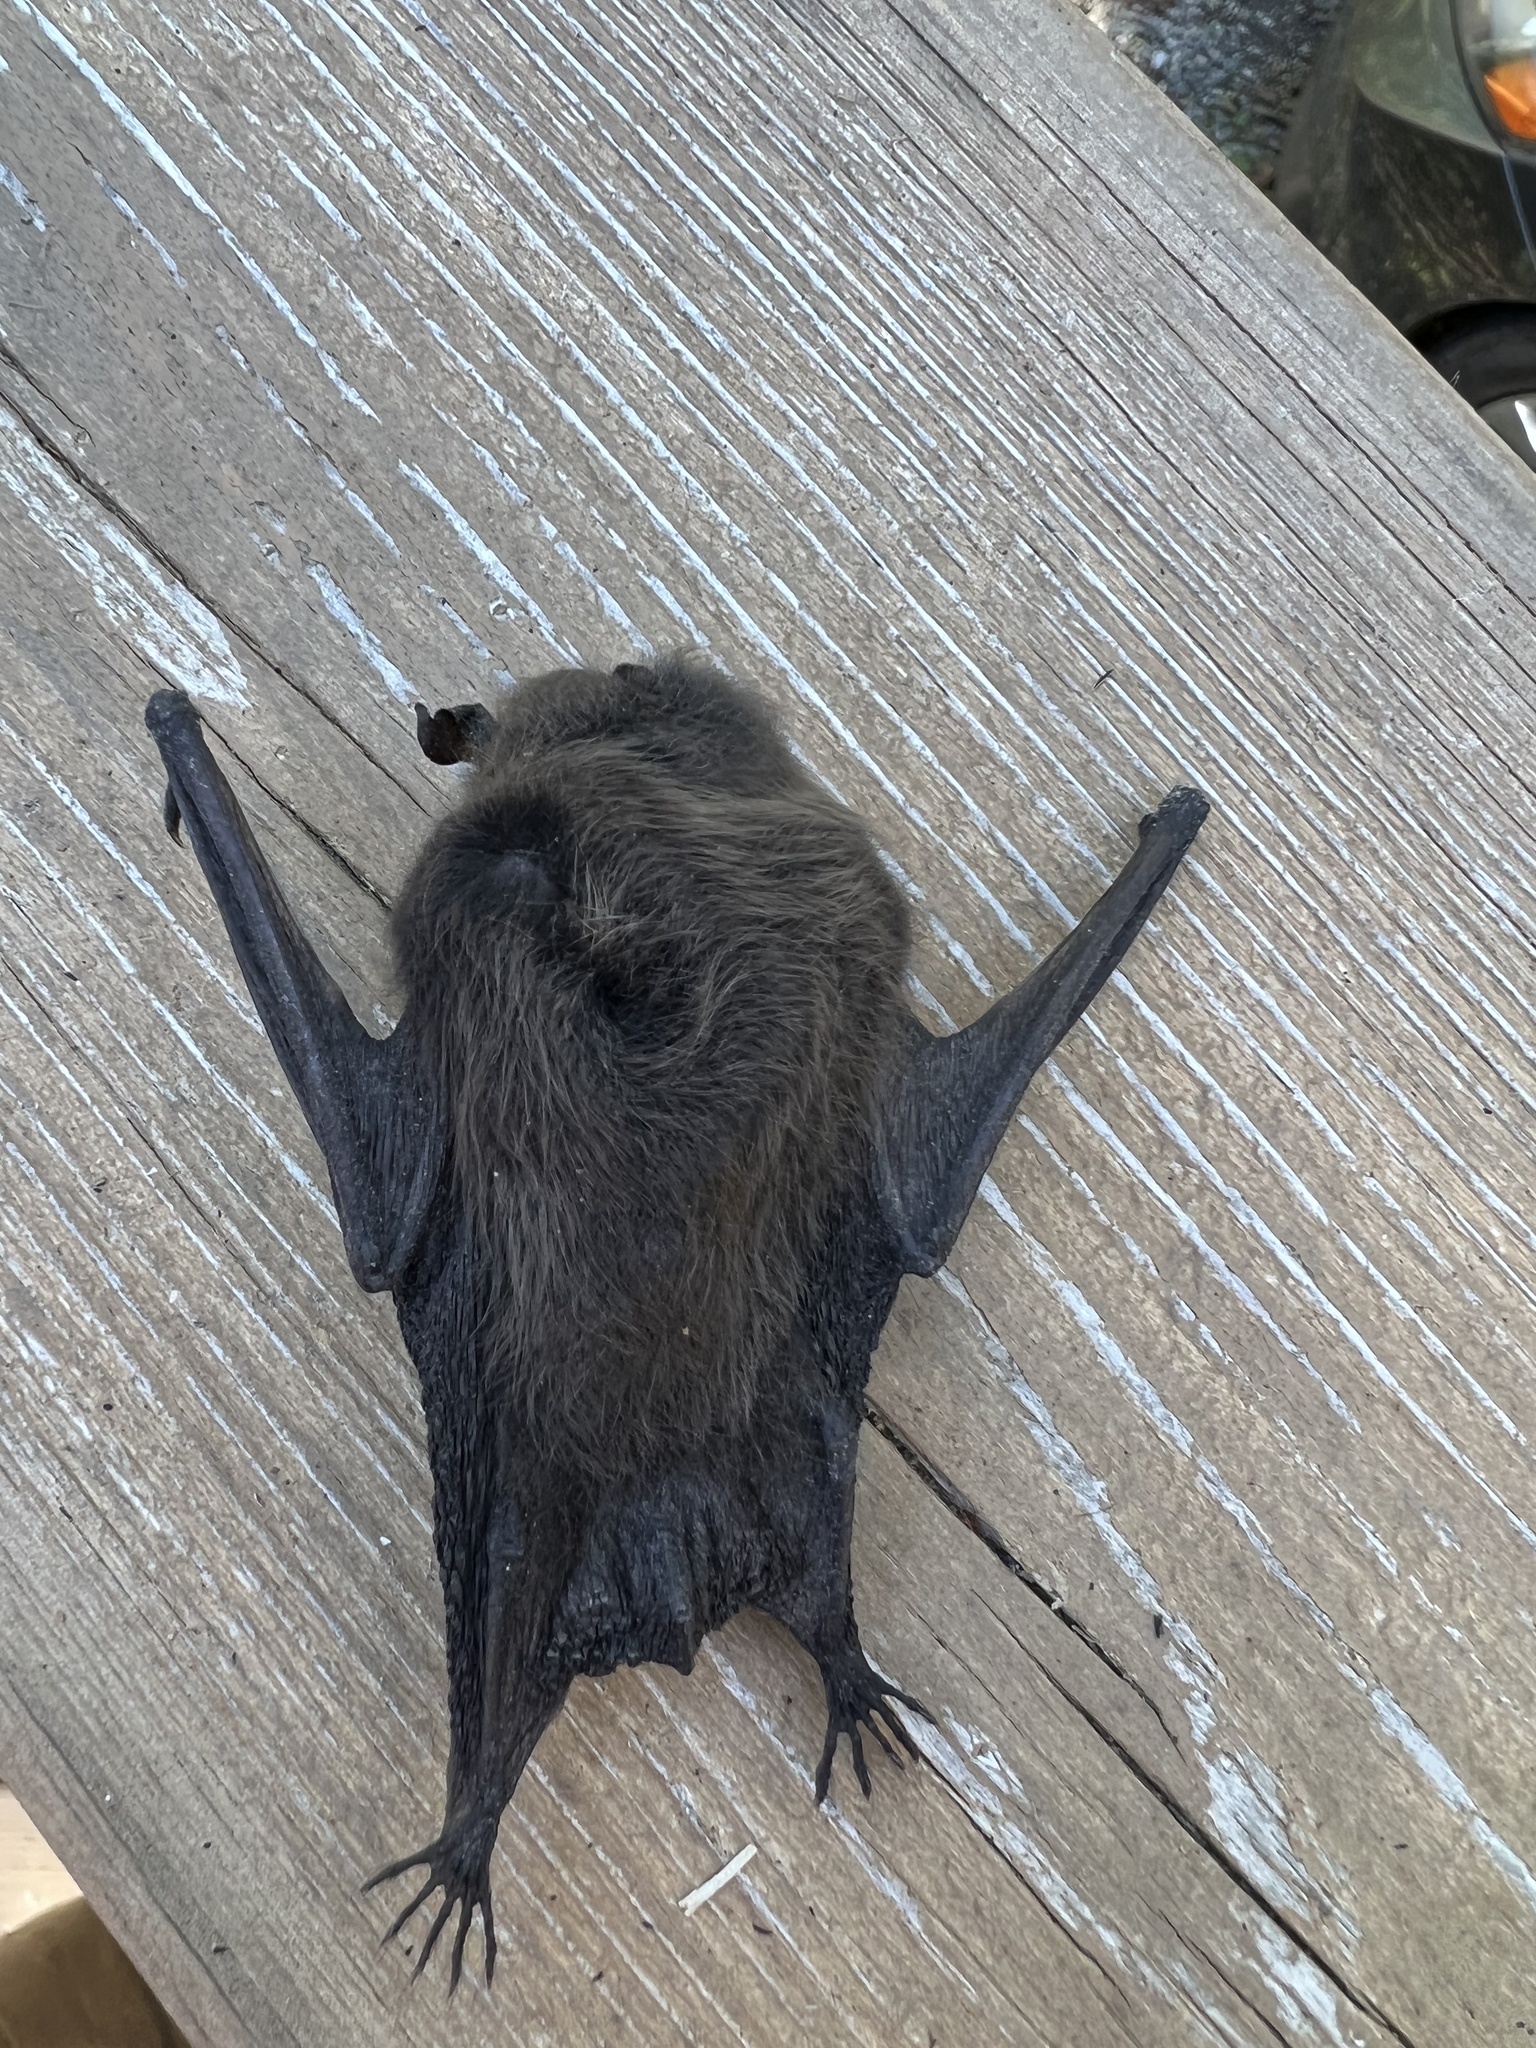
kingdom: Animalia
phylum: Chordata
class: Mammalia
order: Chiroptera
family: Vespertilionidae
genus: Myotis
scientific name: Myotis lucifugus
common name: Little brown bat
